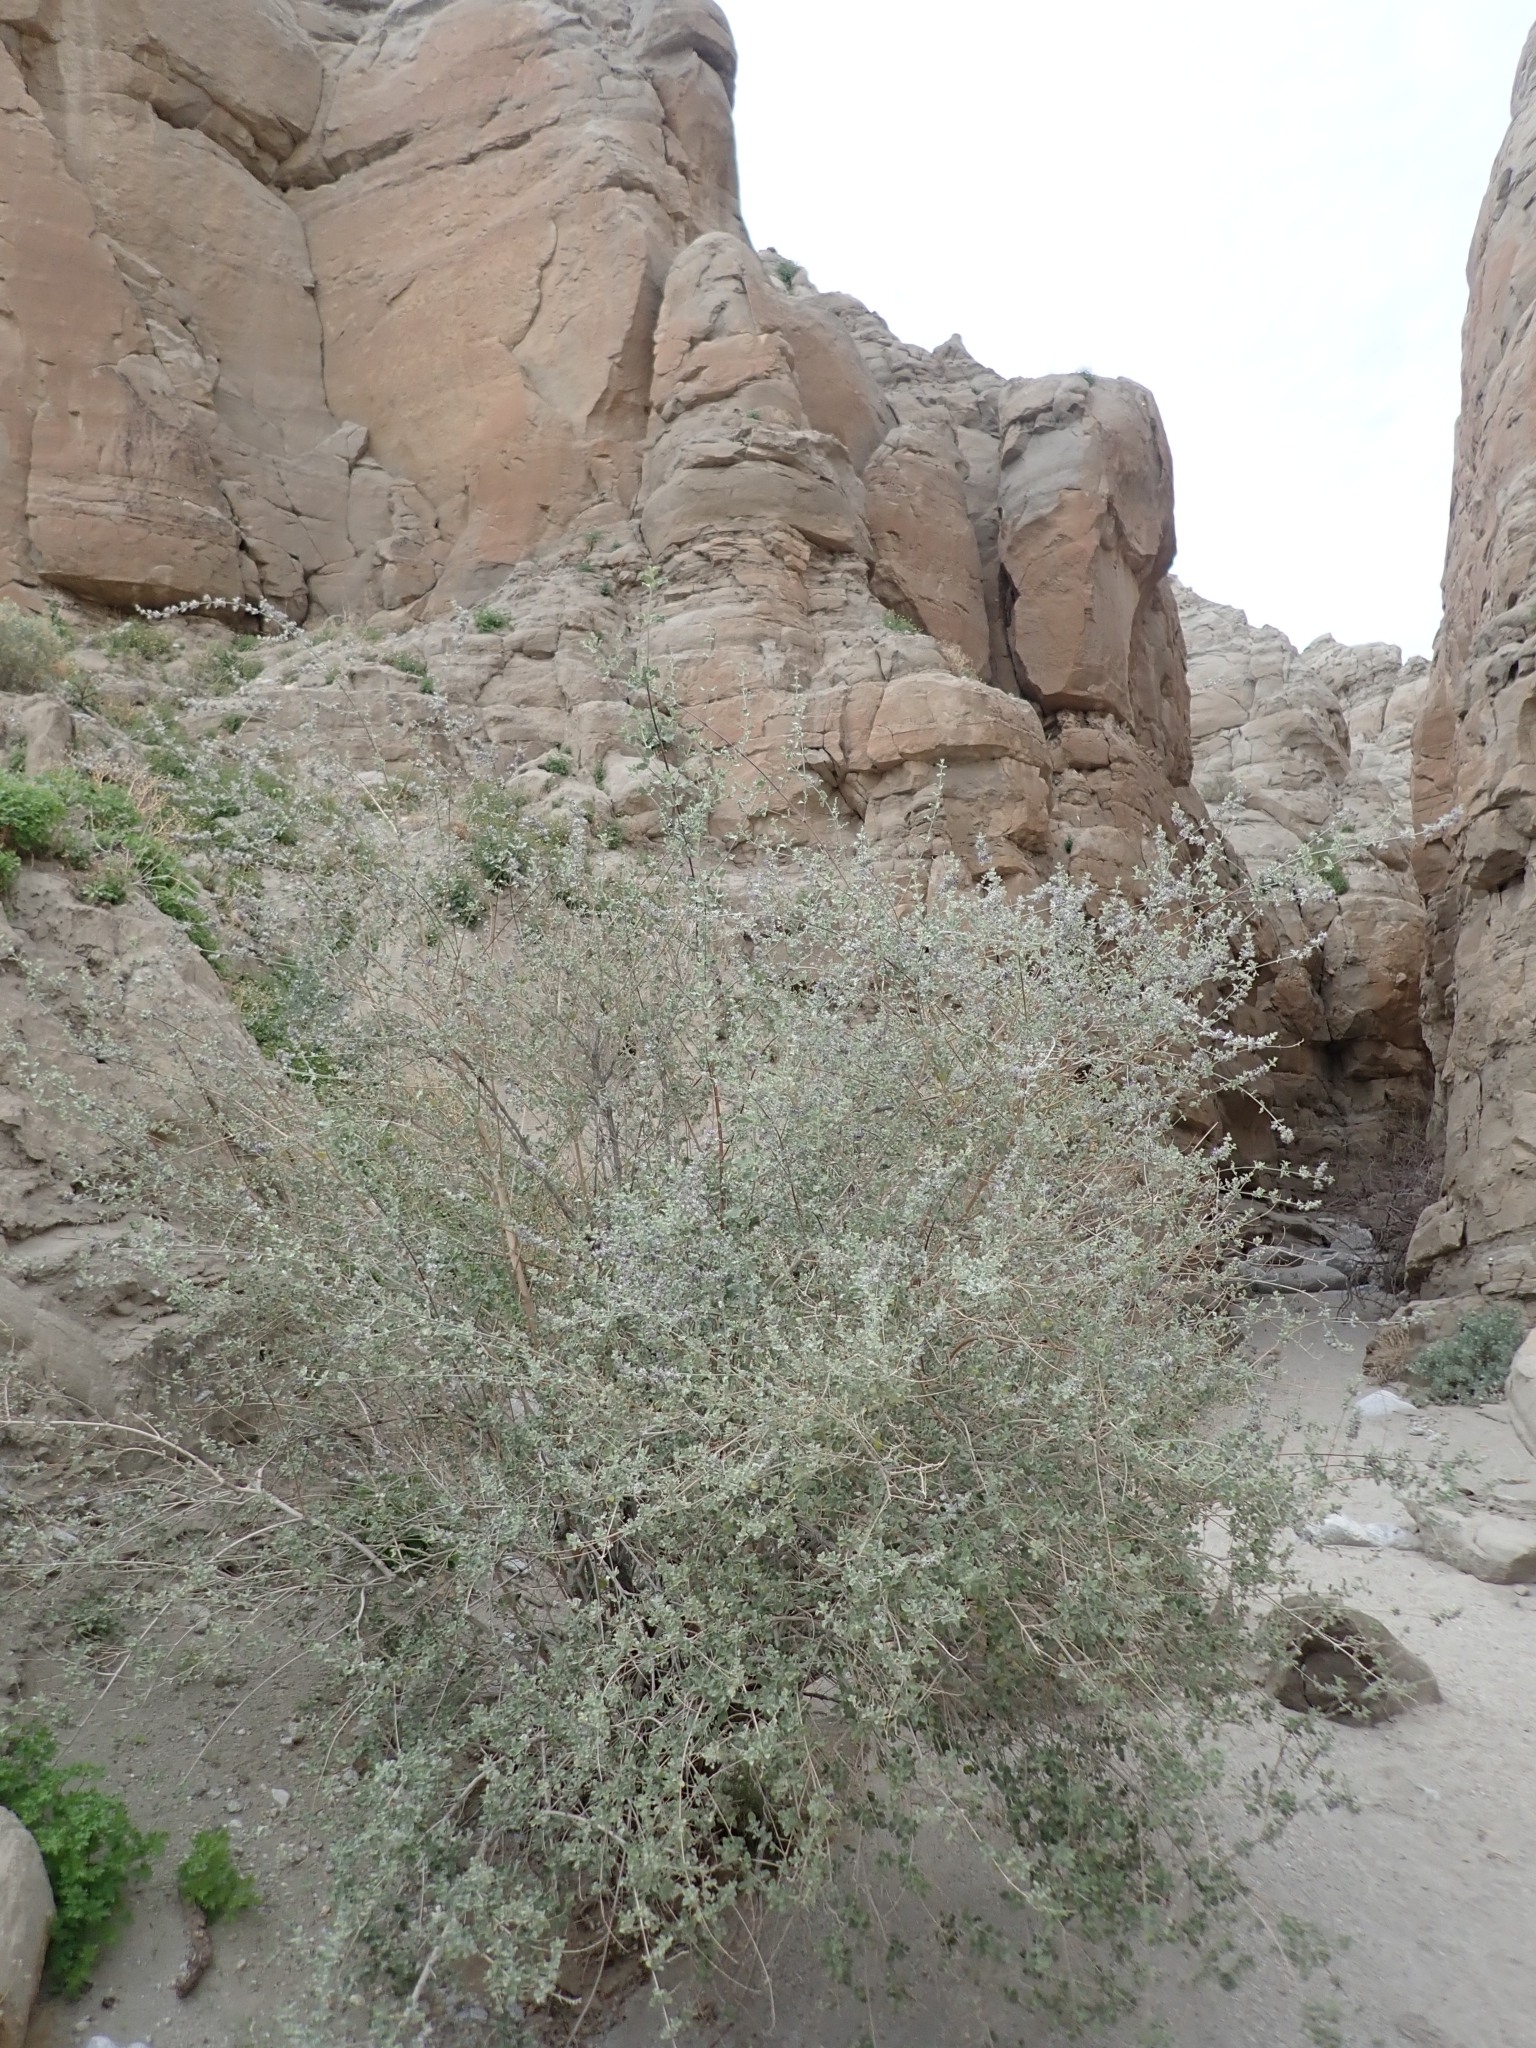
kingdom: Plantae
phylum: Tracheophyta
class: Magnoliopsida
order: Lamiales
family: Lamiaceae
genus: Condea
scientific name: Condea emoryi
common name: Chia
